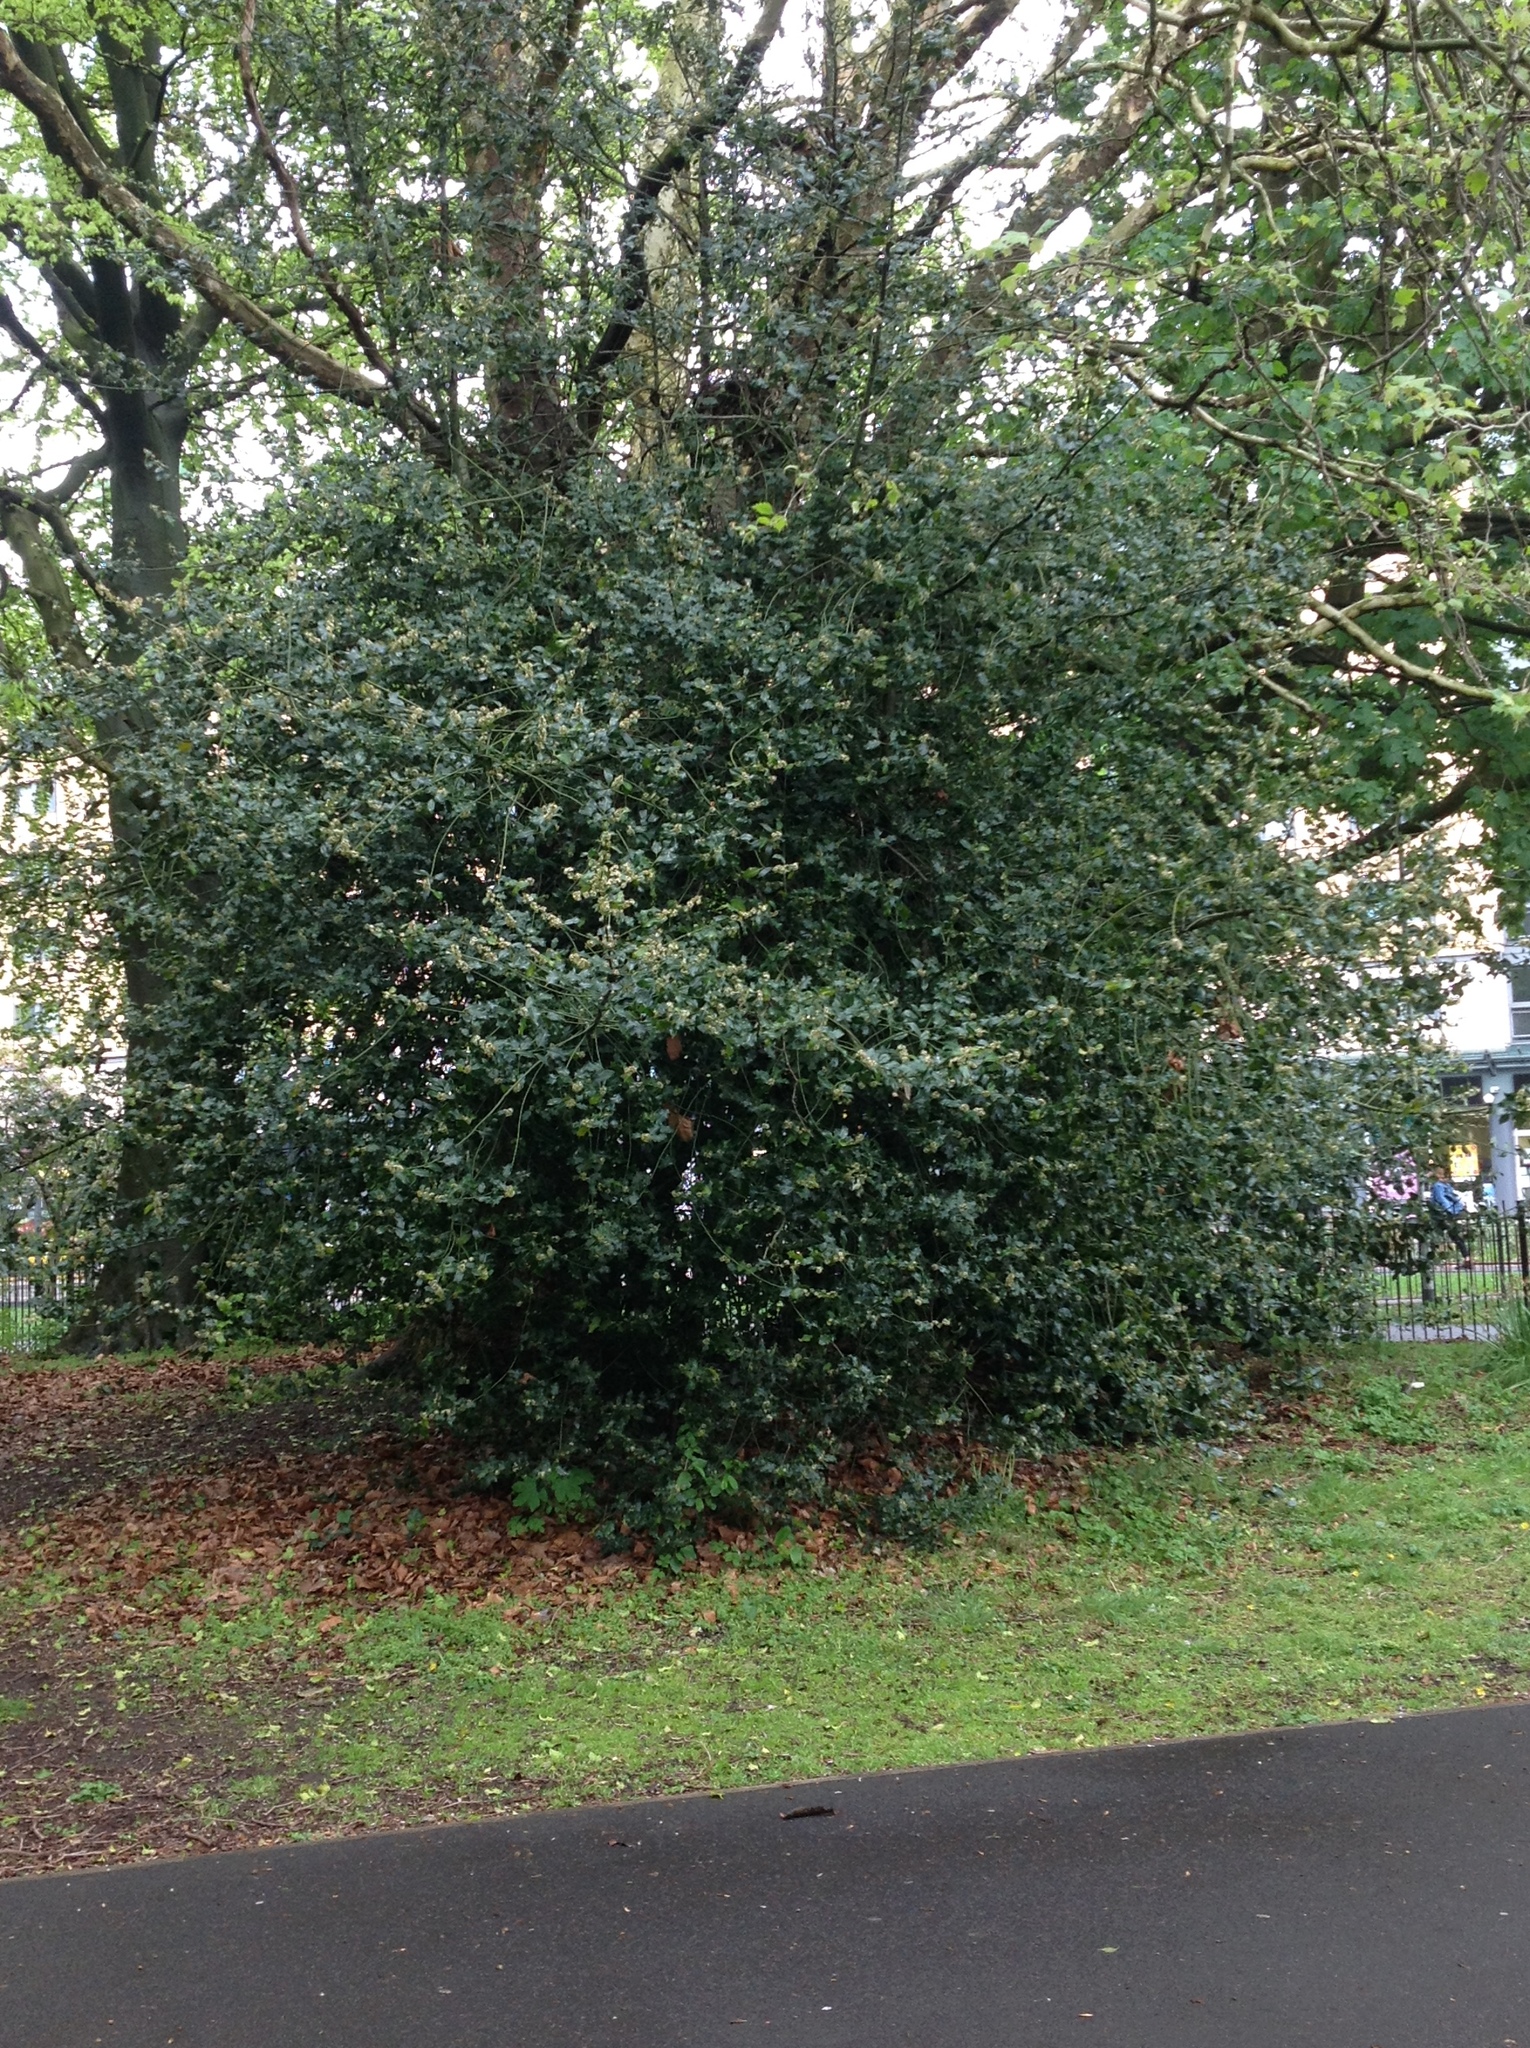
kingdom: Plantae
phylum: Tracheophyta
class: Magnoliopsida
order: Aquifoliales
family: Aquifoliaceae
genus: Ilex
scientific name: Ilex aquifolium
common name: English holly
